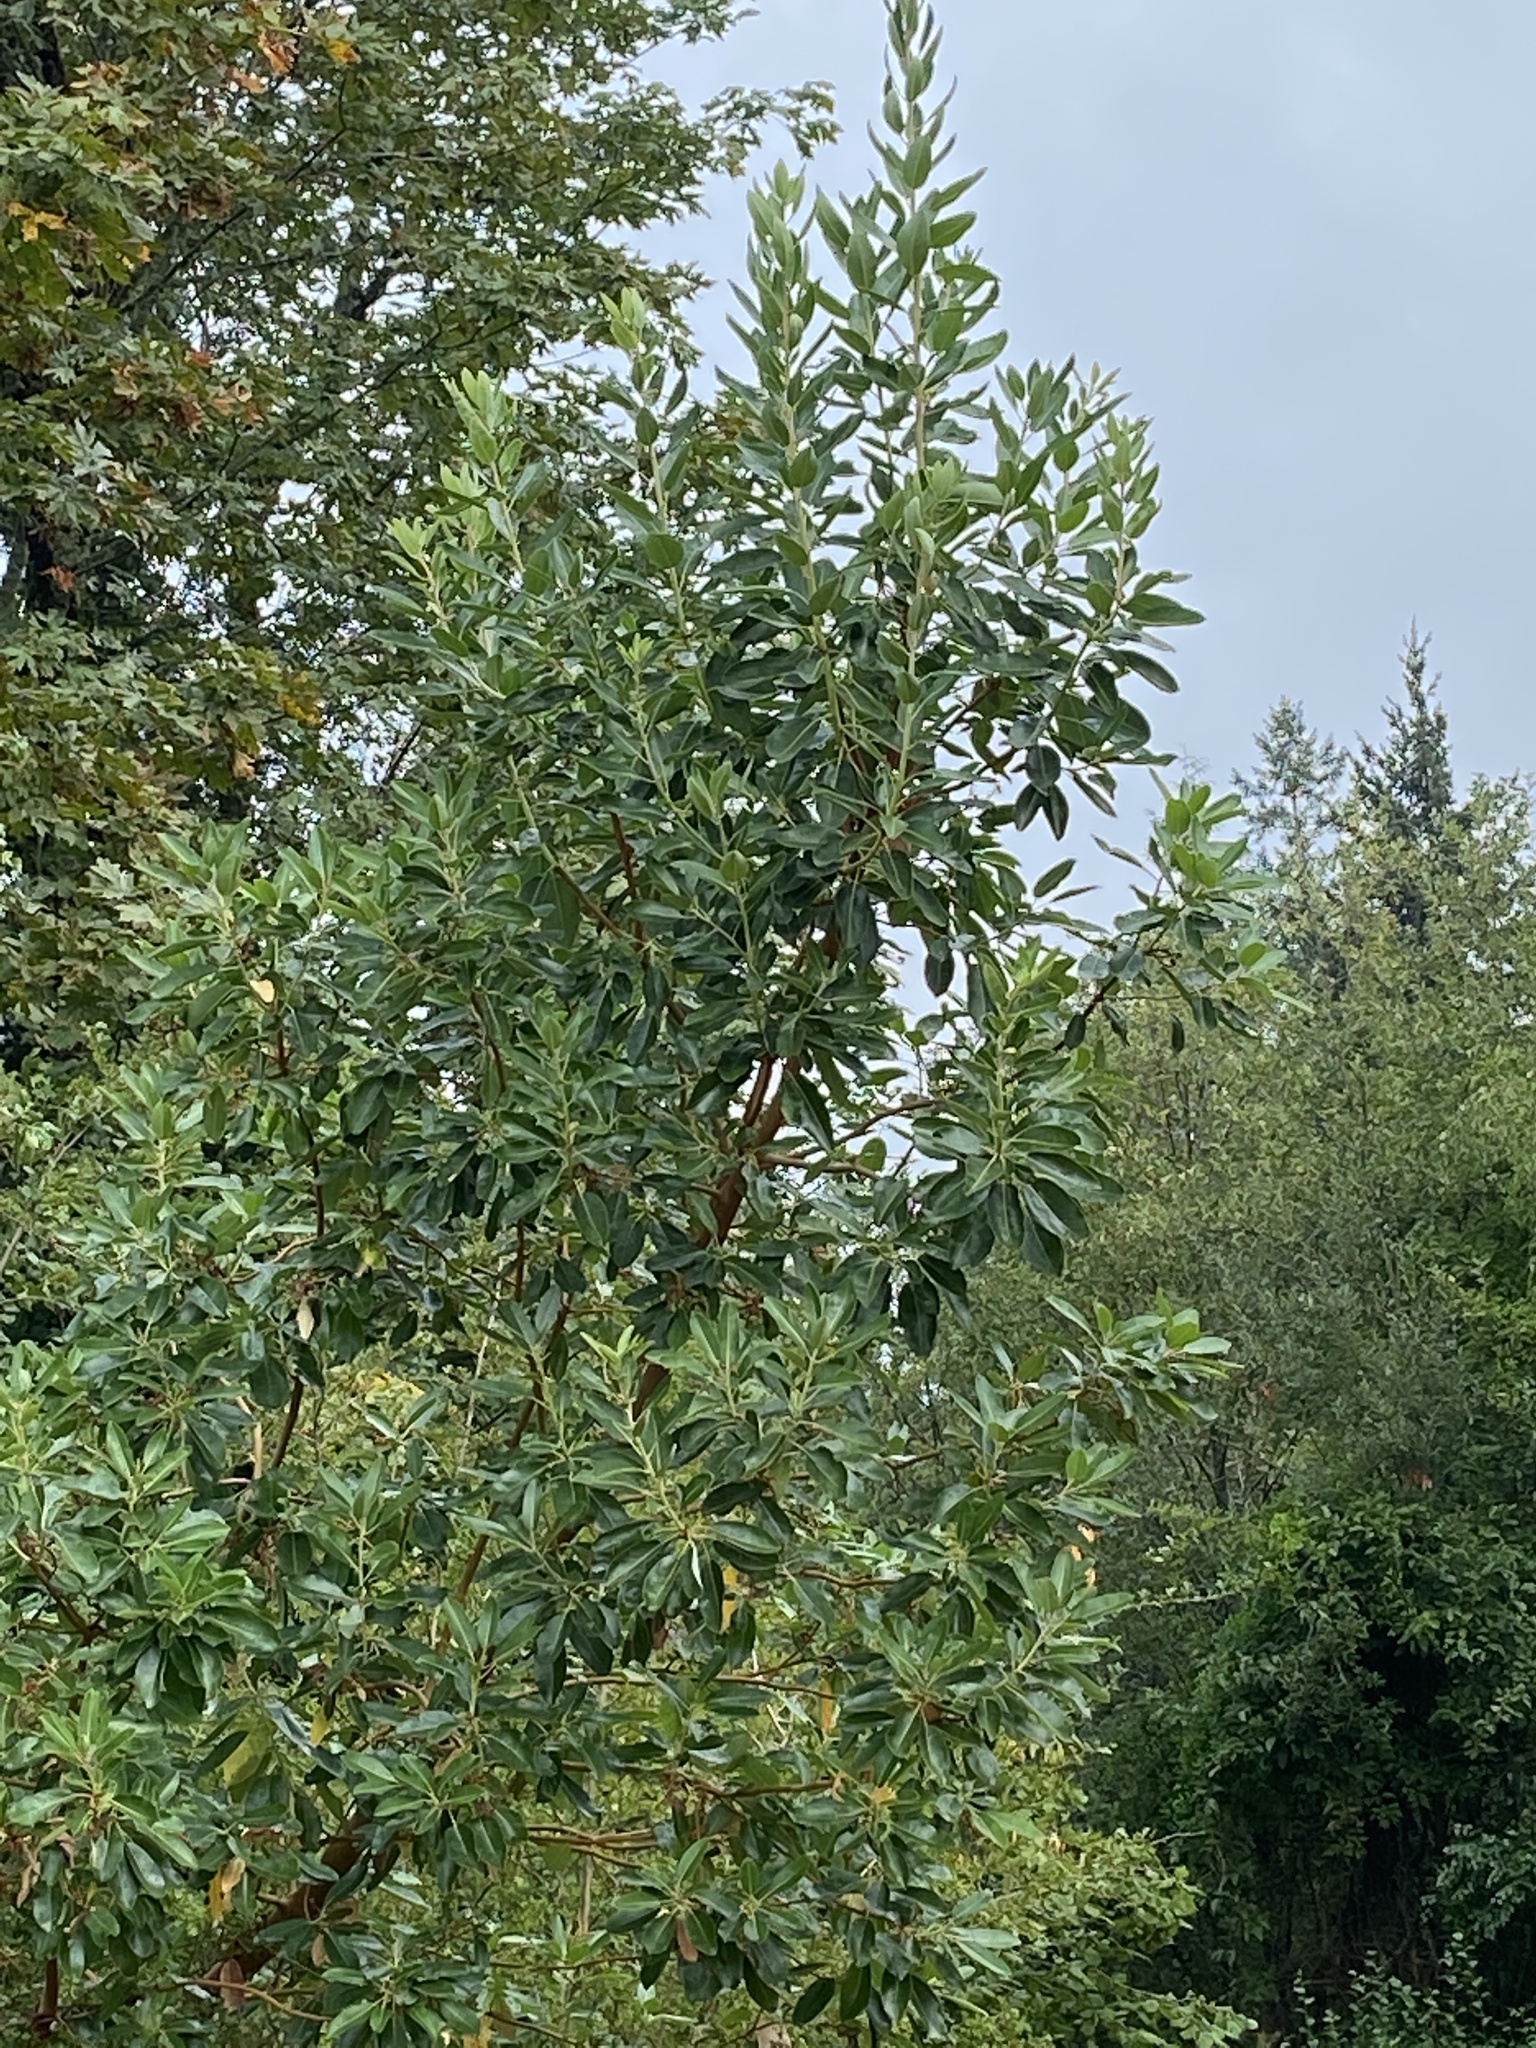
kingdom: Plantae
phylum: Tracheophyta
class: Magnoliopsida
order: Ericales
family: Ericaceae
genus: Arbutus
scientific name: Arbutus menziesii
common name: Pacific madrone
